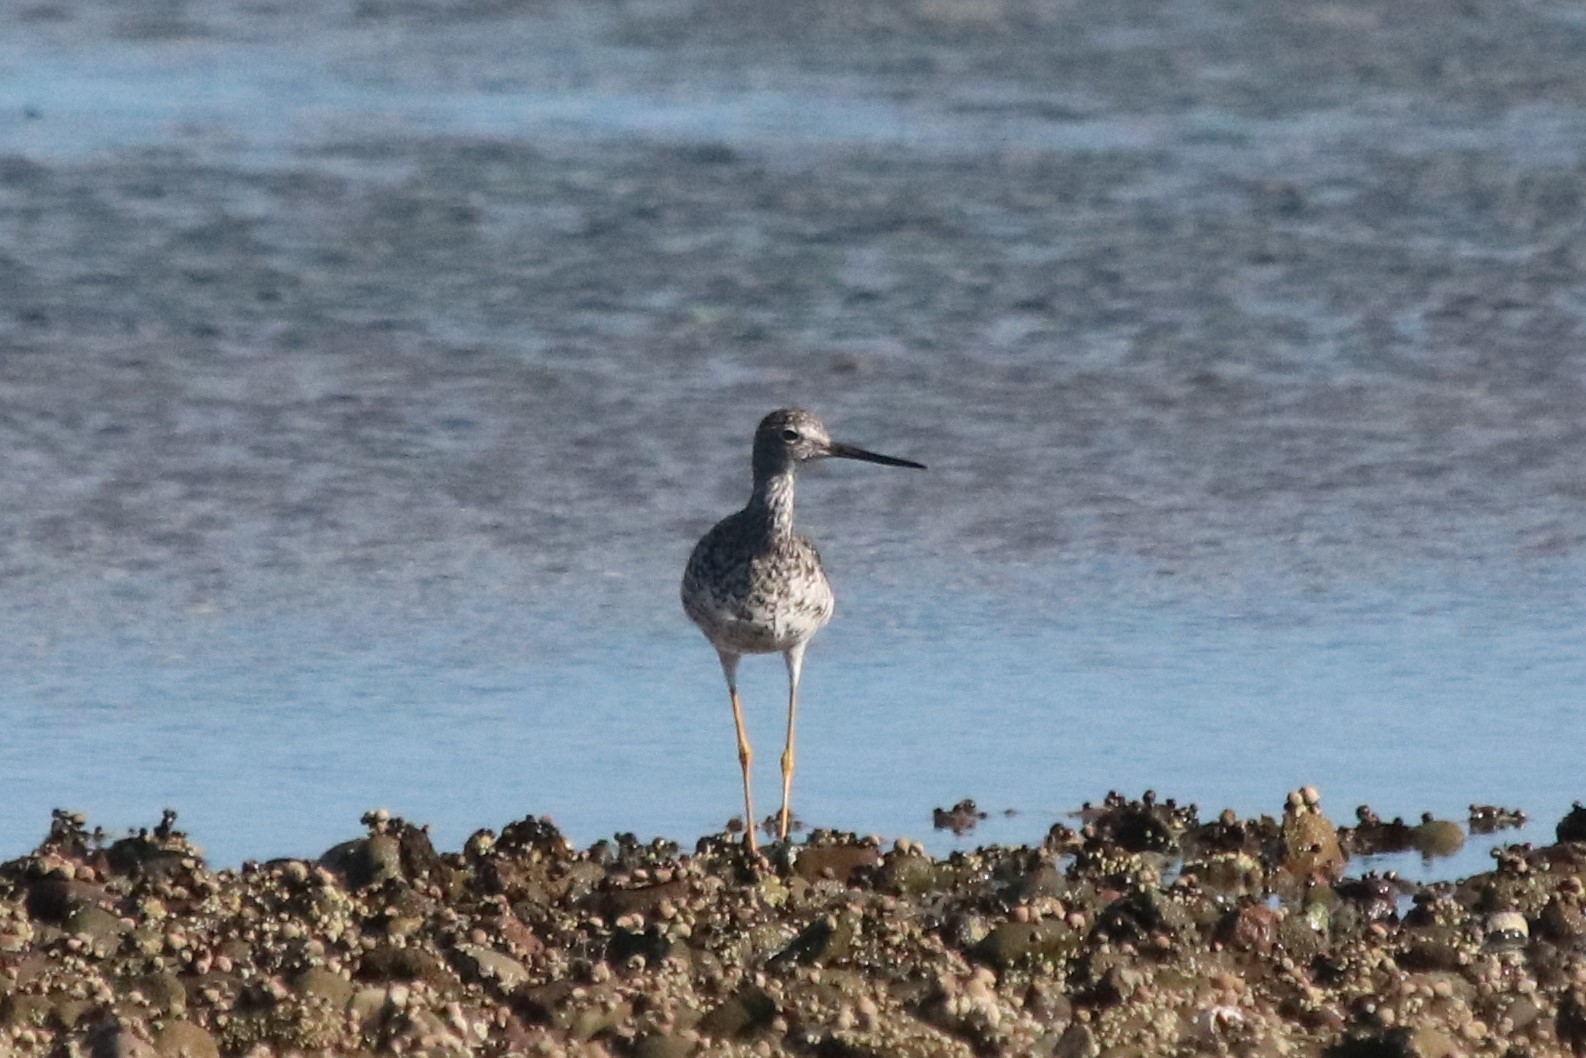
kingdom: Animalia
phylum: Chordata
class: Aves
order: Charadriiformes
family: Scolopacidae
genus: Tringa
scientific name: Tringa melanoleuca
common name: Greater yellowlegs
